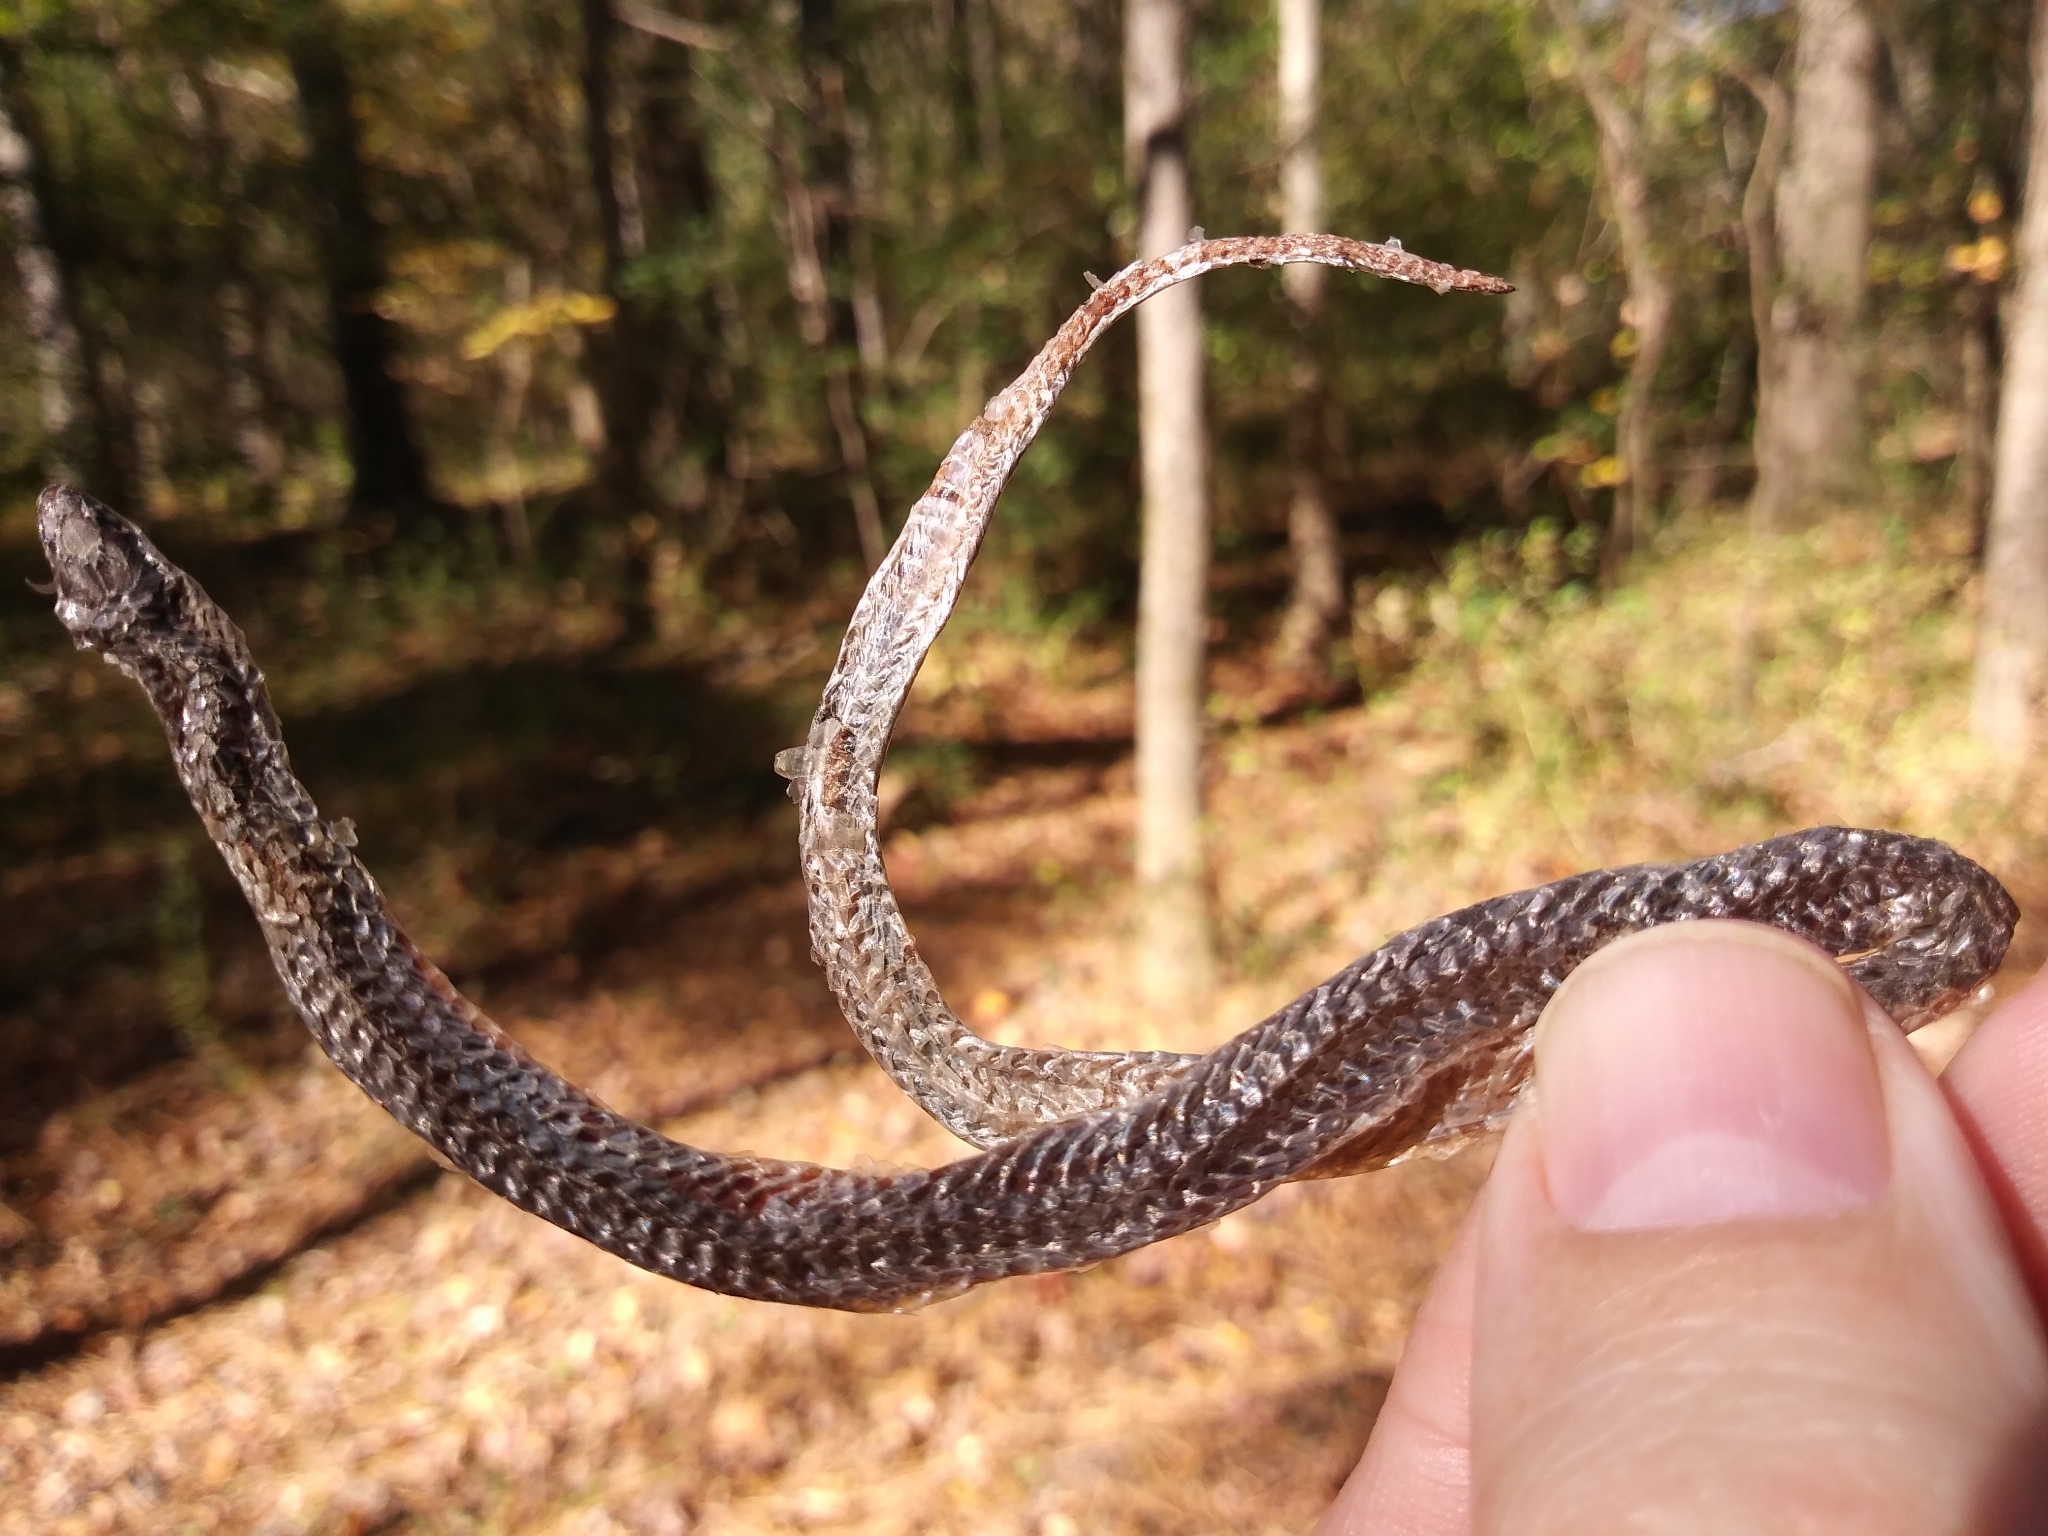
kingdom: Animalia
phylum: Chordata
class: Squamata
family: Colubridae
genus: Carphophis
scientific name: Carphophis amoenus
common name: Eastern worm snake
